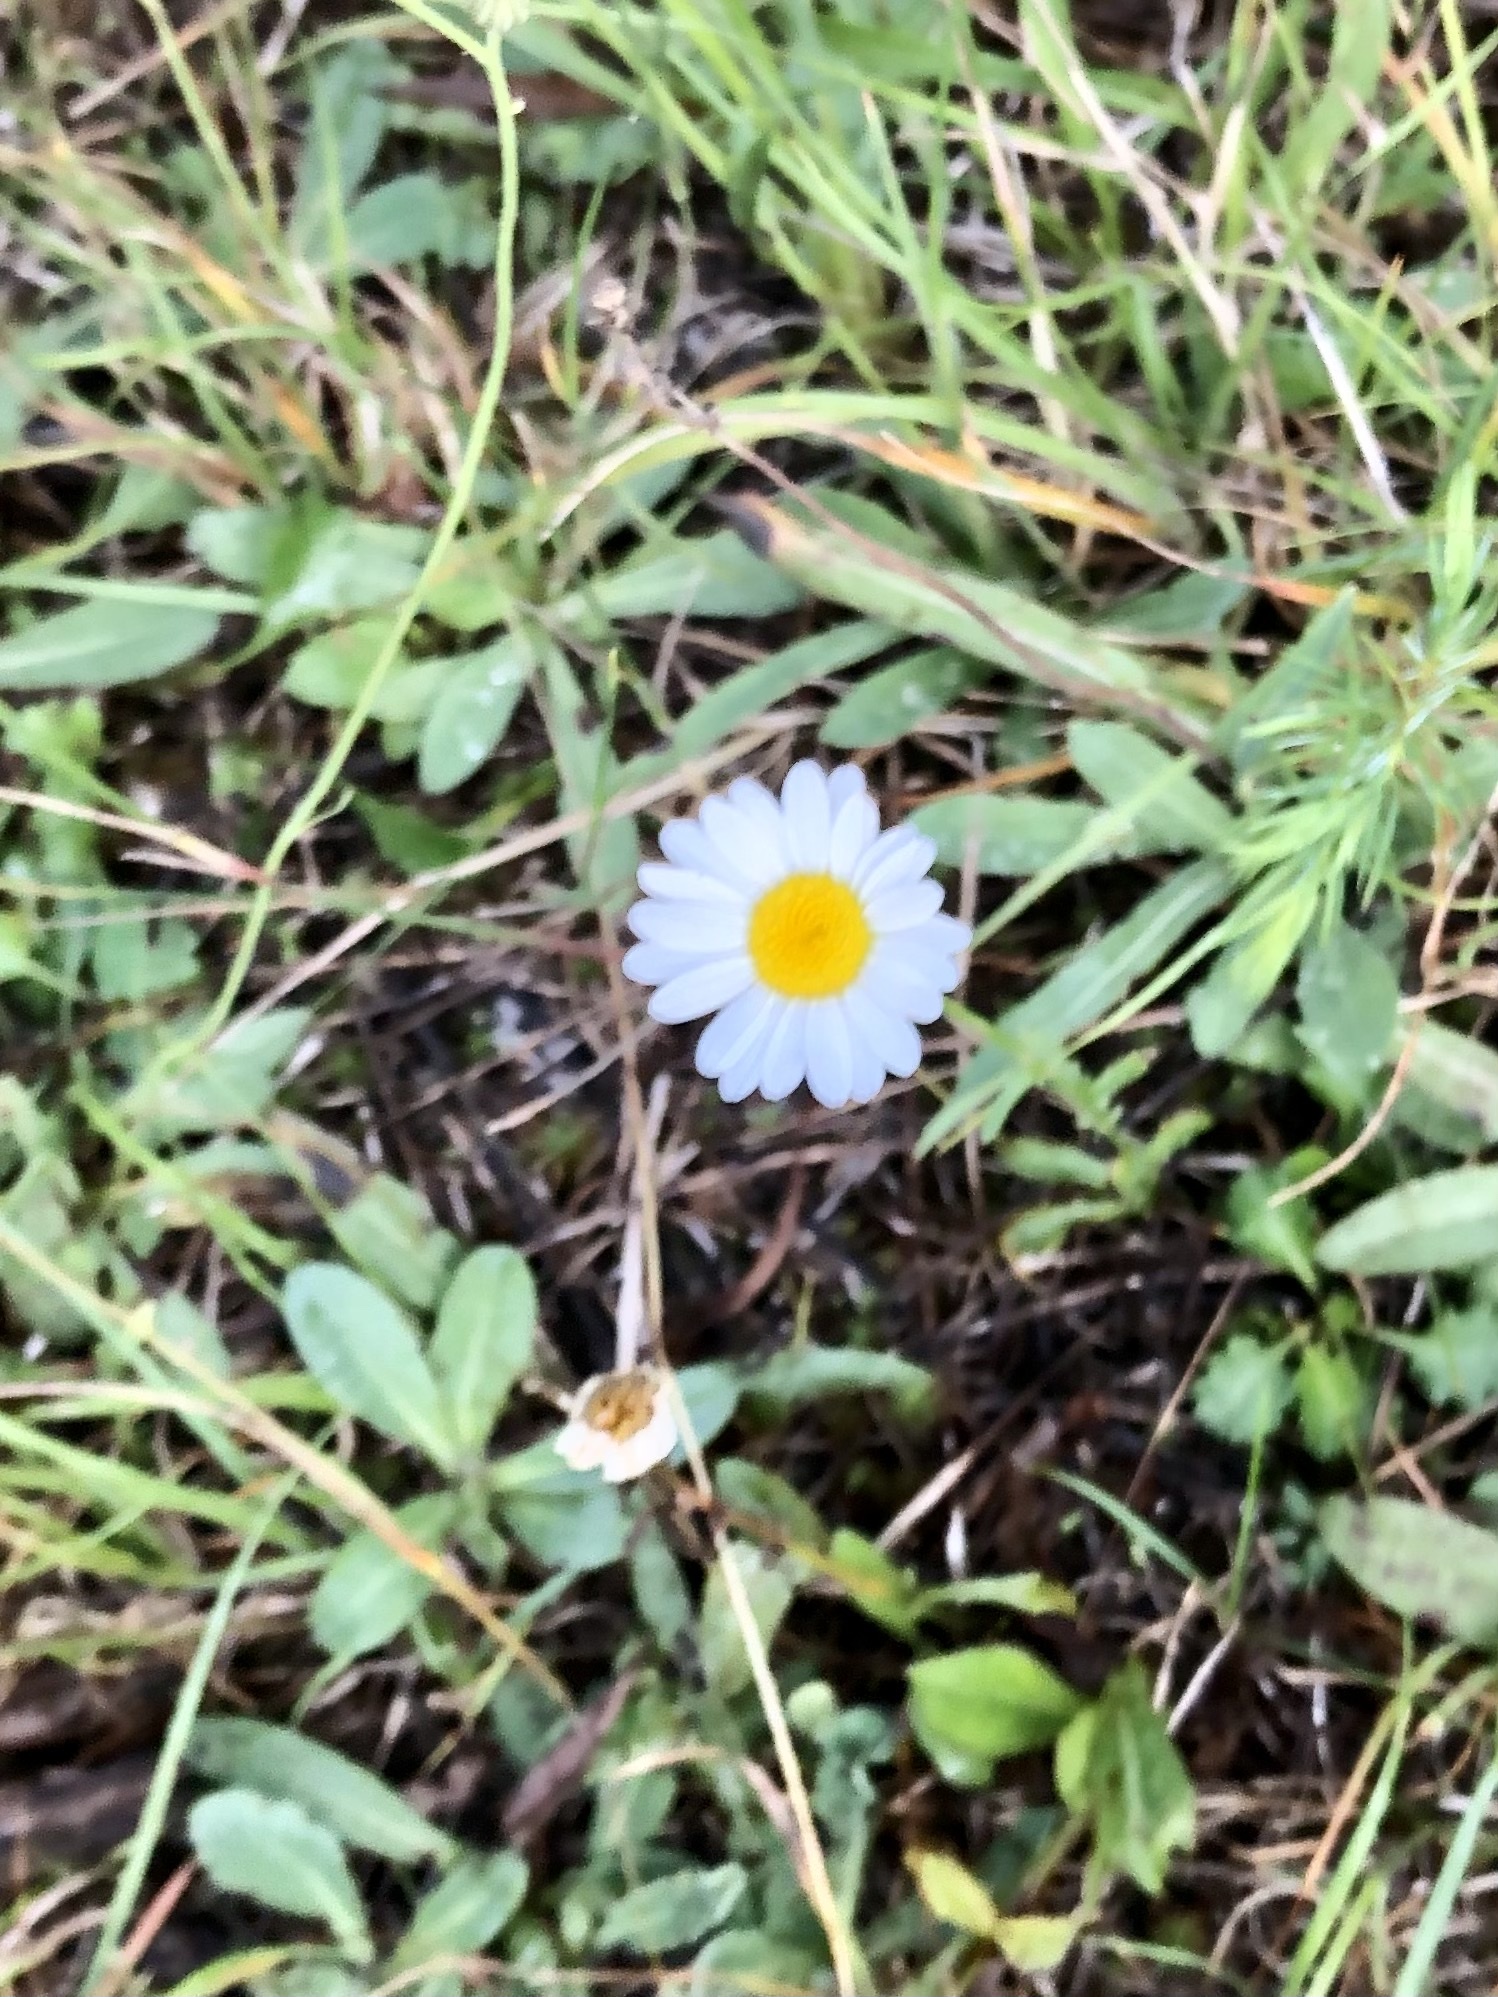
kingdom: Plantae
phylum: Tracheophyta
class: Magnoliopsida
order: Asterales
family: Asteraceae
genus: Bellis
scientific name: Bellis perennis
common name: Lawndaisy
